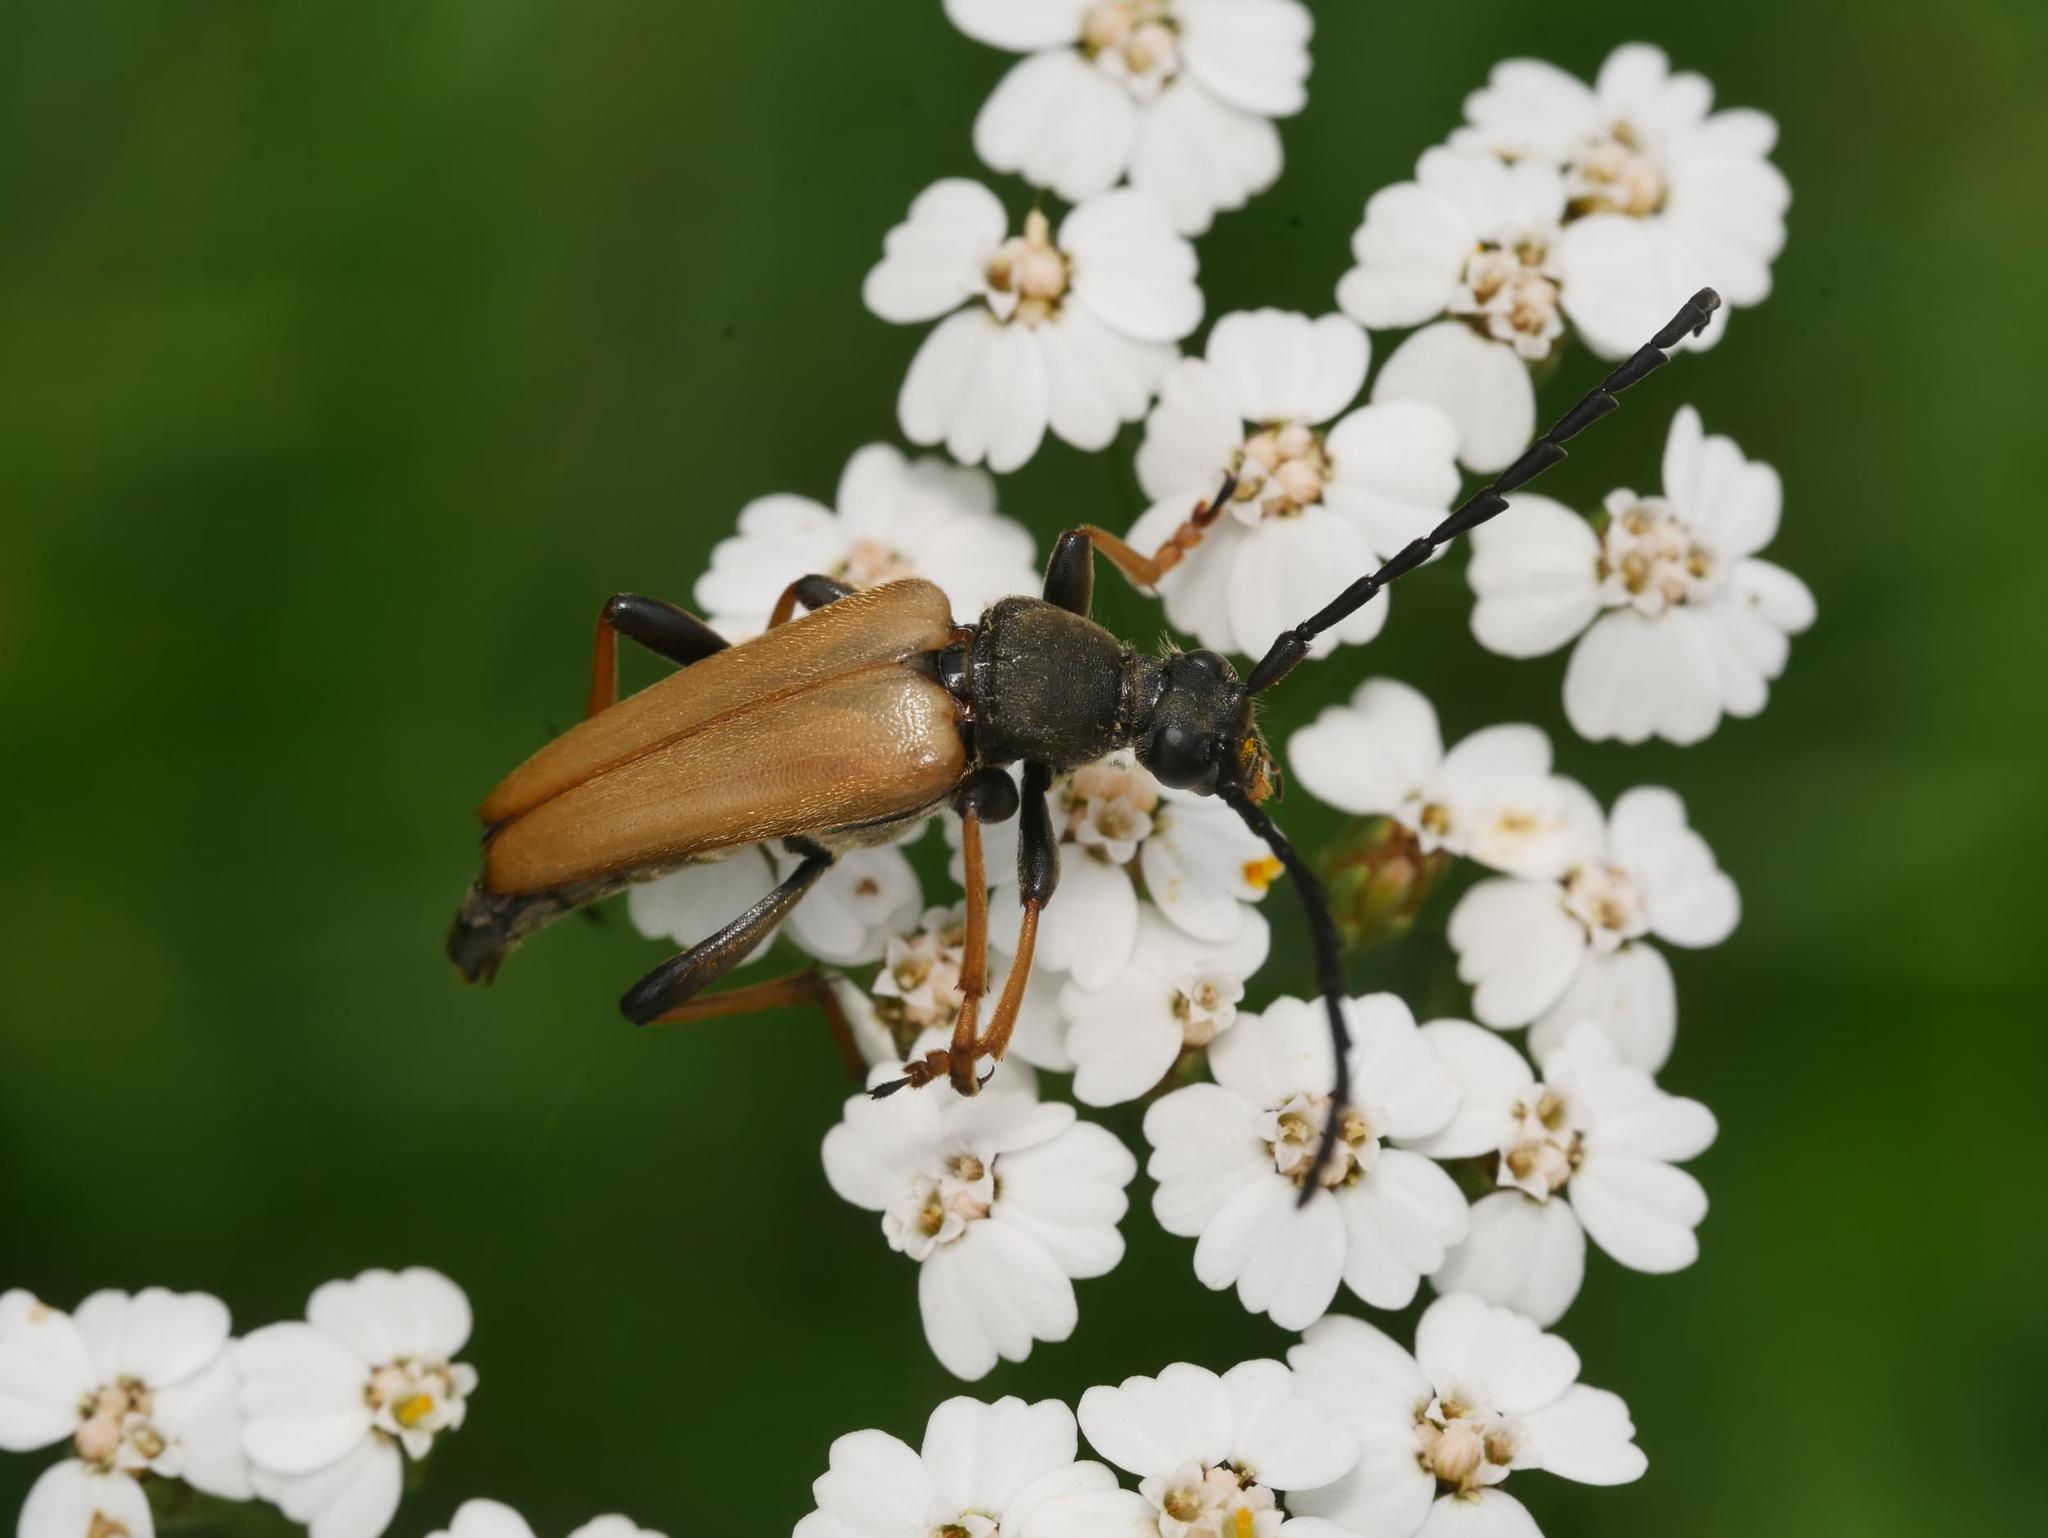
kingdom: Animalia
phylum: Arthropoda
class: Insecta
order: Coleoptera
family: Cerambycidae
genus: Stictoleptura
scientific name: Stictoleptura rubra
